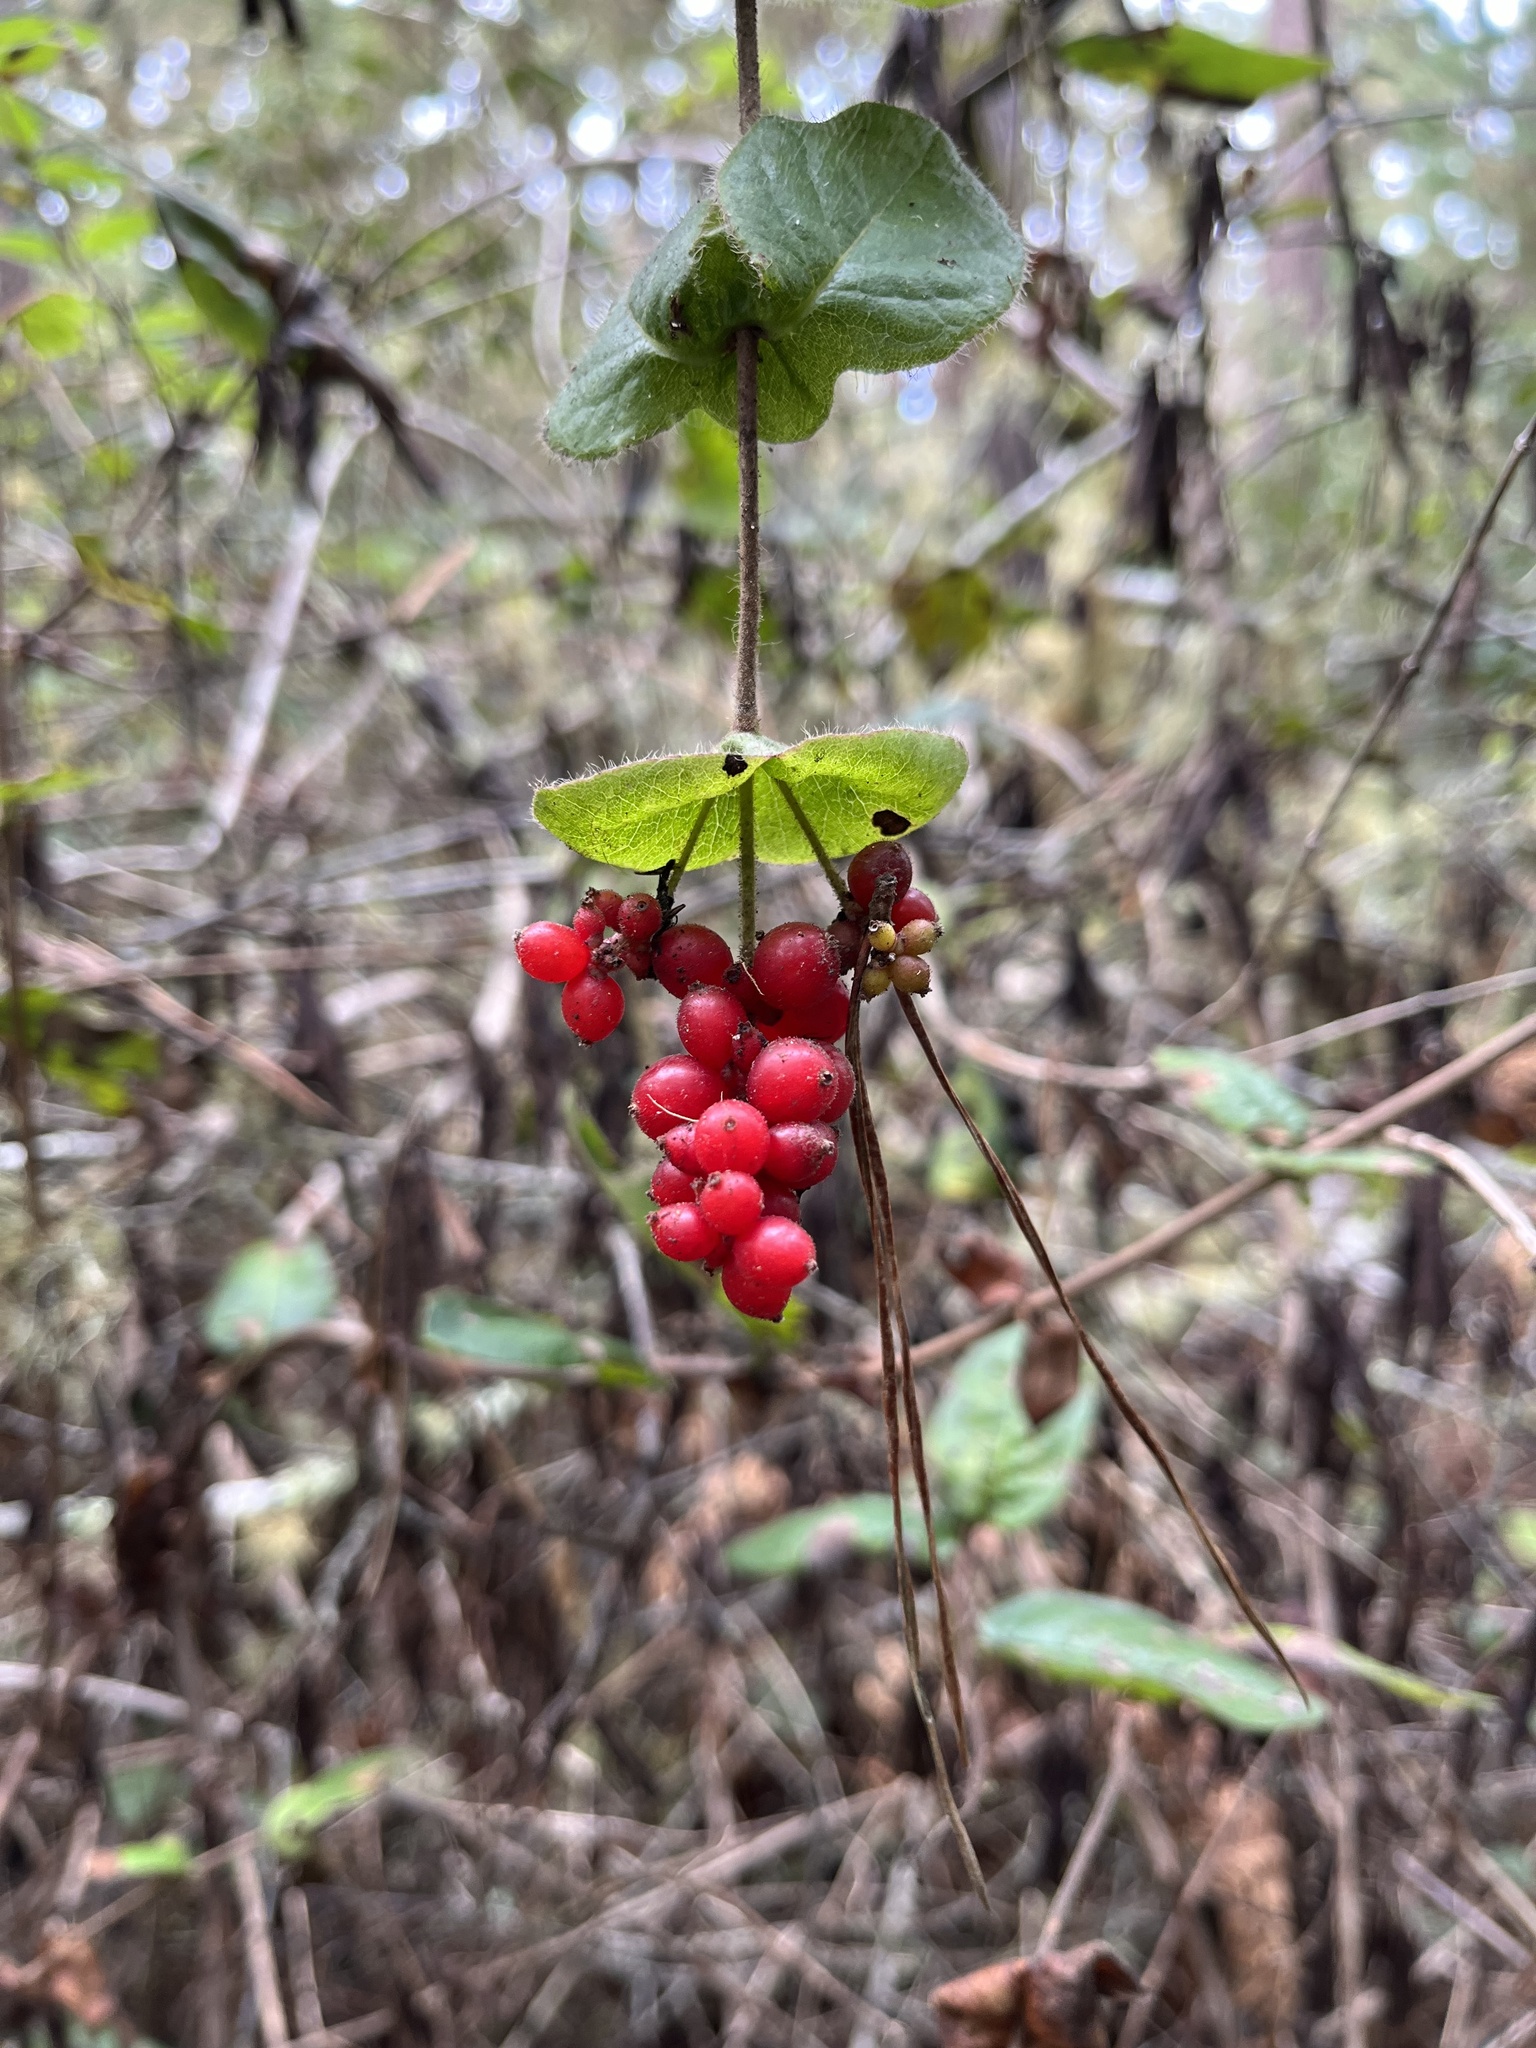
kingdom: Plantae
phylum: Tracheophyta
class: Magnoliopsida
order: Dipsacales
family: Caprifoliaceae
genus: Lonicera
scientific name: Lonicera hispidula
